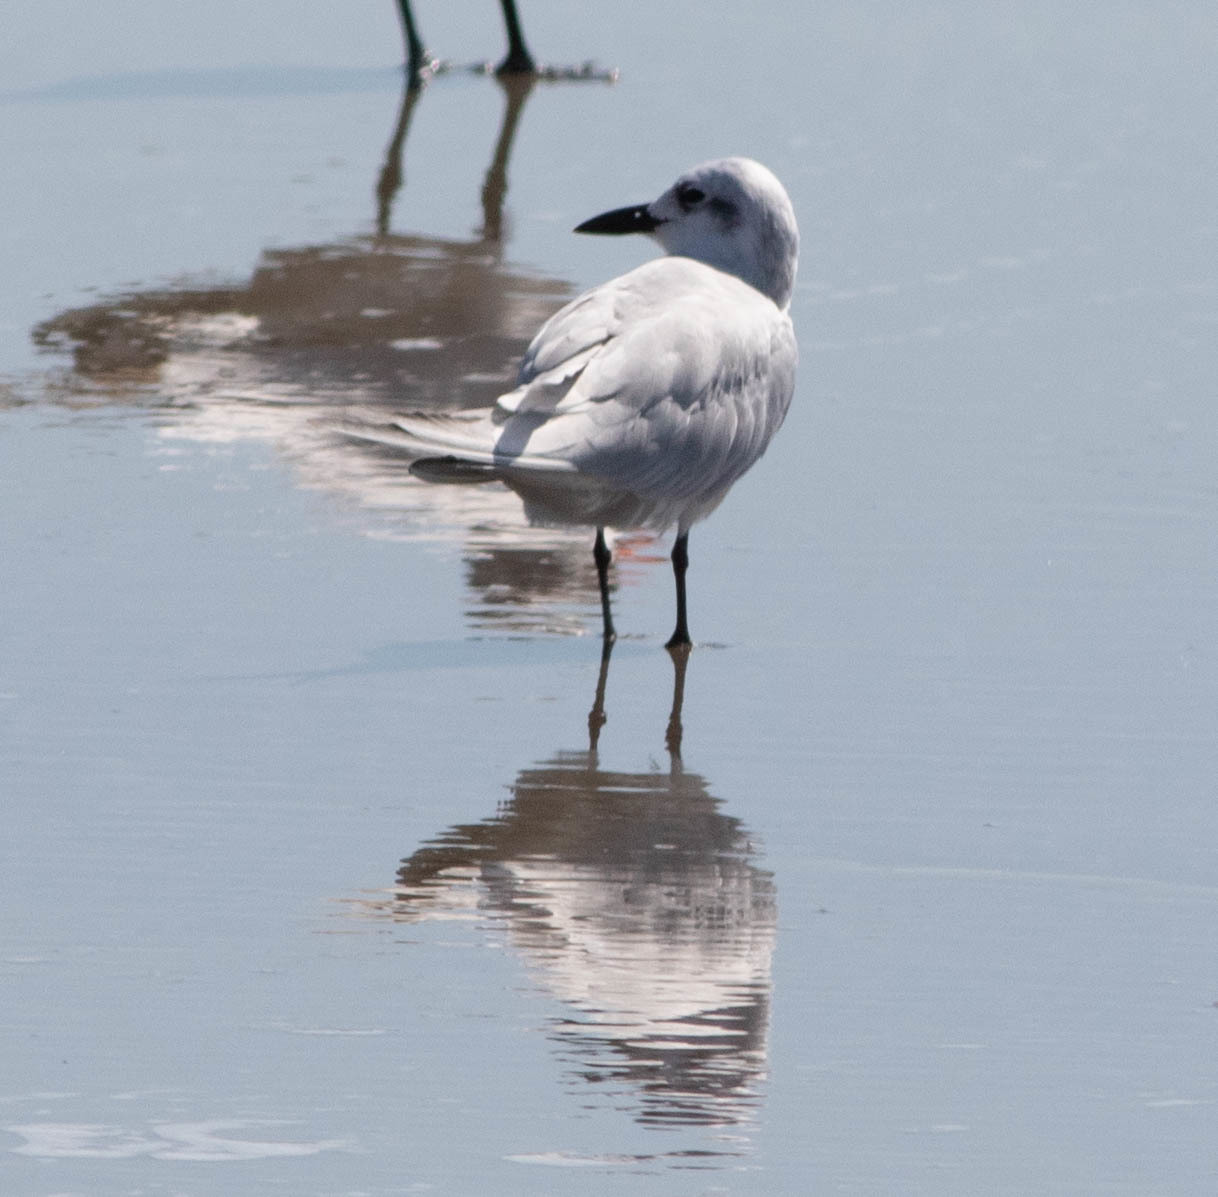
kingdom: Animalia
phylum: Chordata
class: Aves
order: Charadriiformes
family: Laridae
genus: Gelochelidon
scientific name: Gelochelidon nilotica
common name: Gull-billed tern
